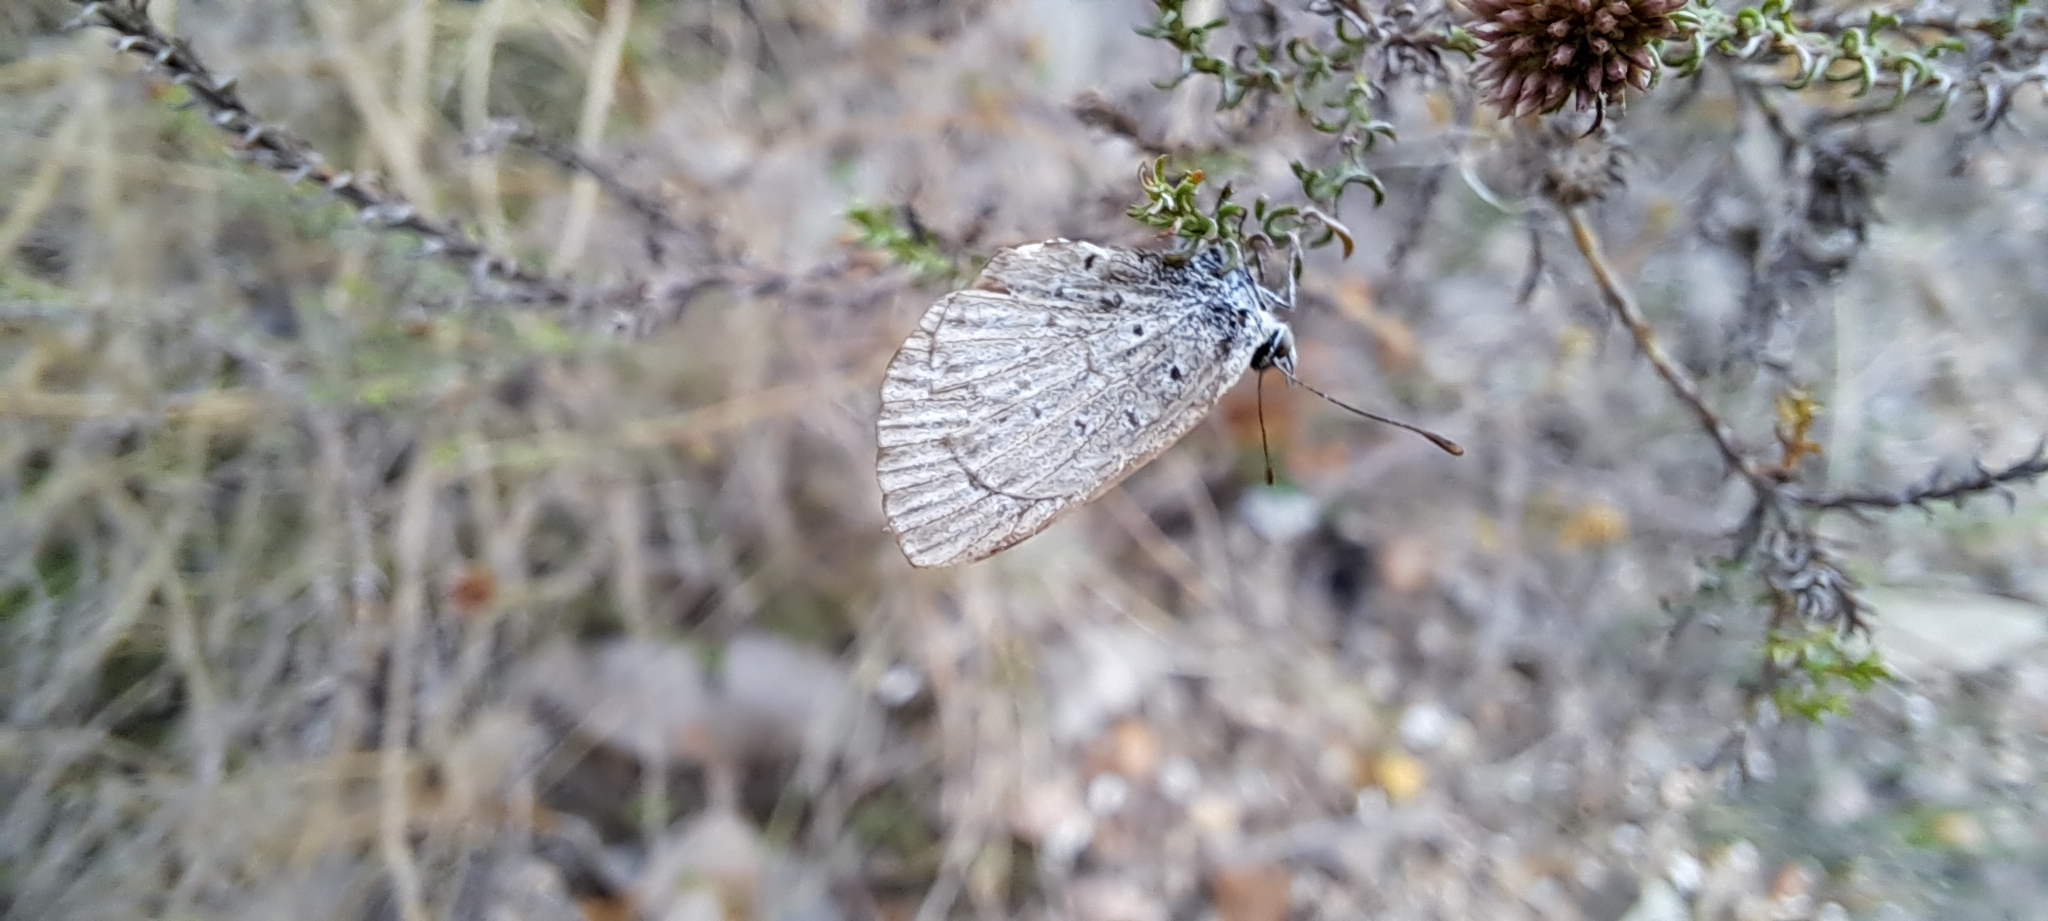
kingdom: Animalia
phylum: Arthropoda
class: Insecta
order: Lepidoptera
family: Lycaenidae
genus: Zizeeria
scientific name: Zizeeria knysna
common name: African grass blue
